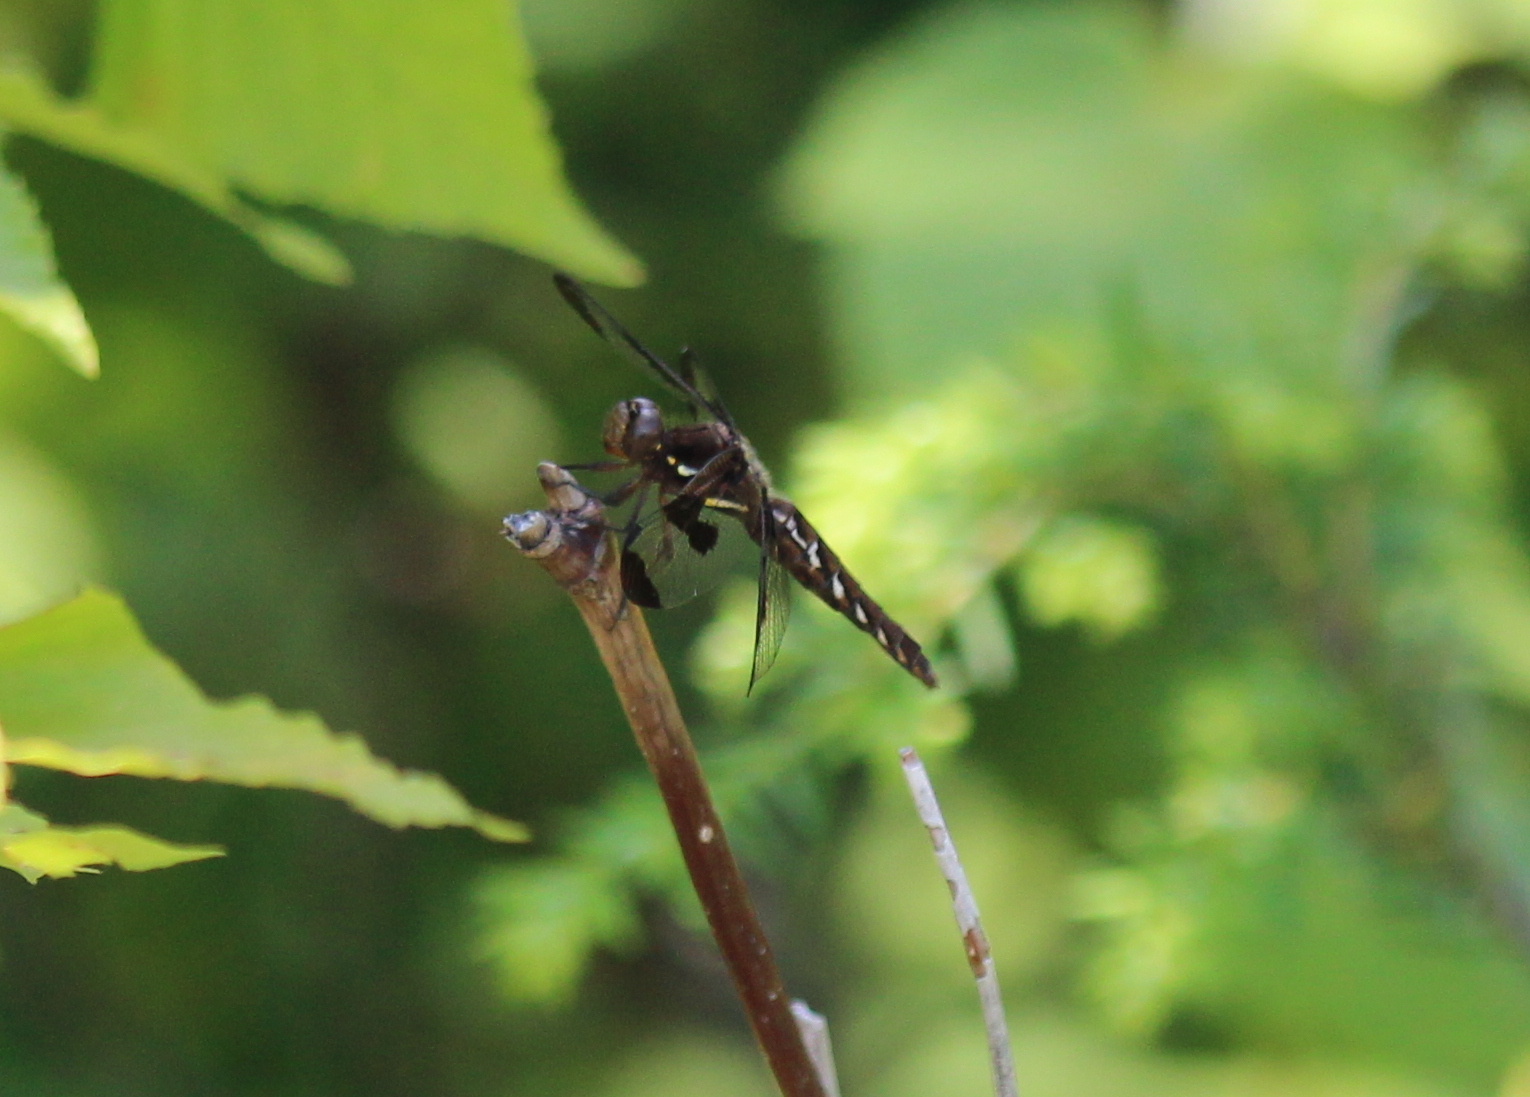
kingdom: Animalia
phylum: Arthropoda
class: Insecta
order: Odonata
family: Libellulidae
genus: Plathemis
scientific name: Plathemis lydia
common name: Common whitetail
